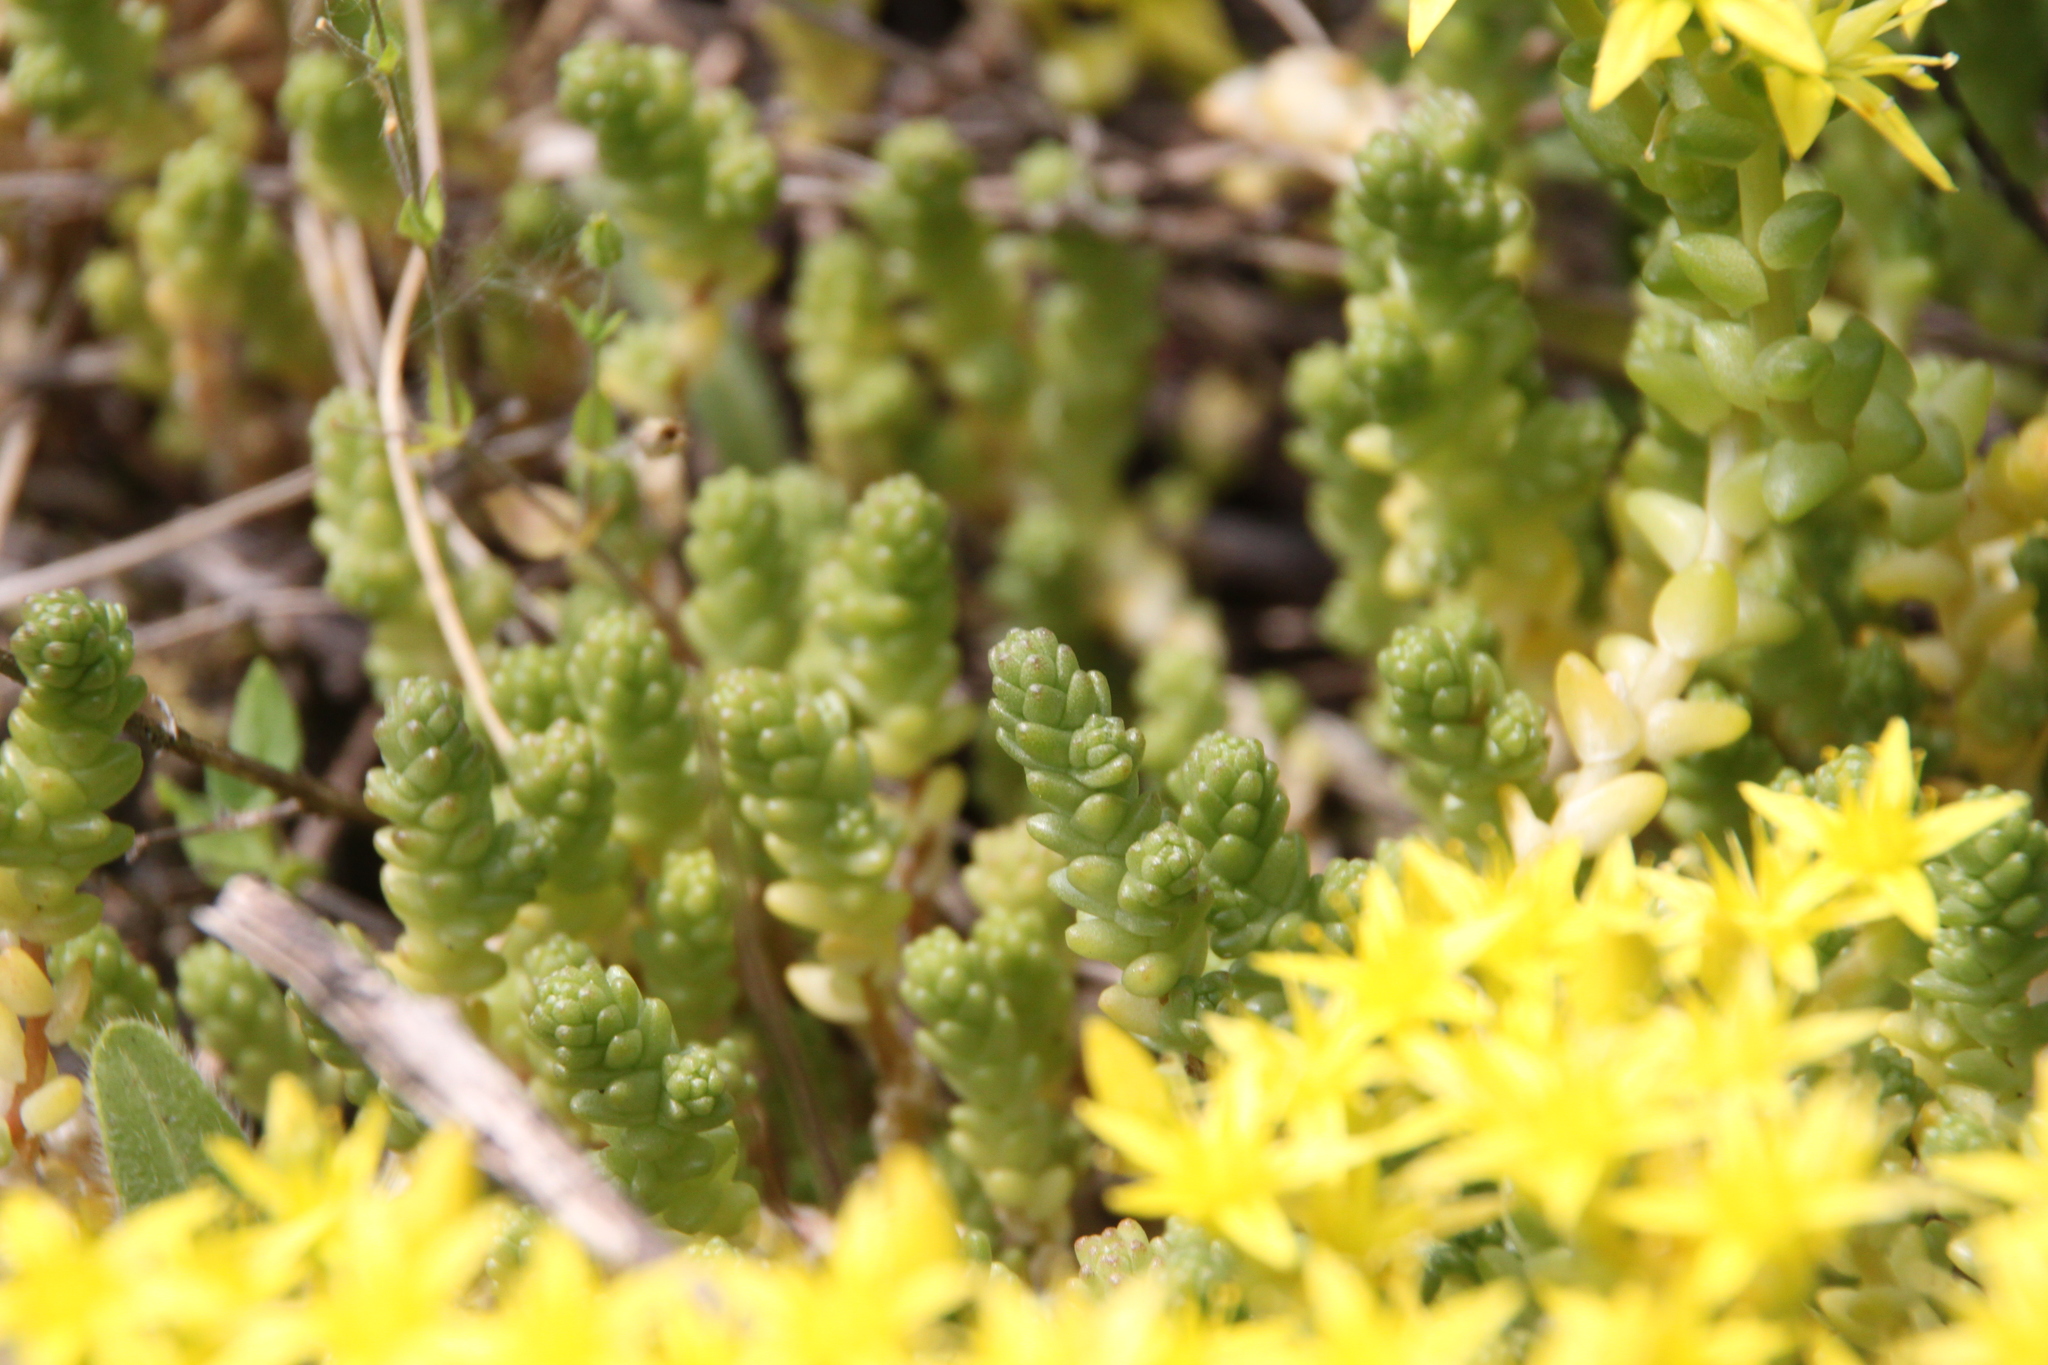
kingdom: Plantae
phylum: Tracheophyta
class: Magnoliopsida
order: Saxifragales
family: Crassulaceae
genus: Sedum
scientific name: Sedum acre
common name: Biting stonecrop
